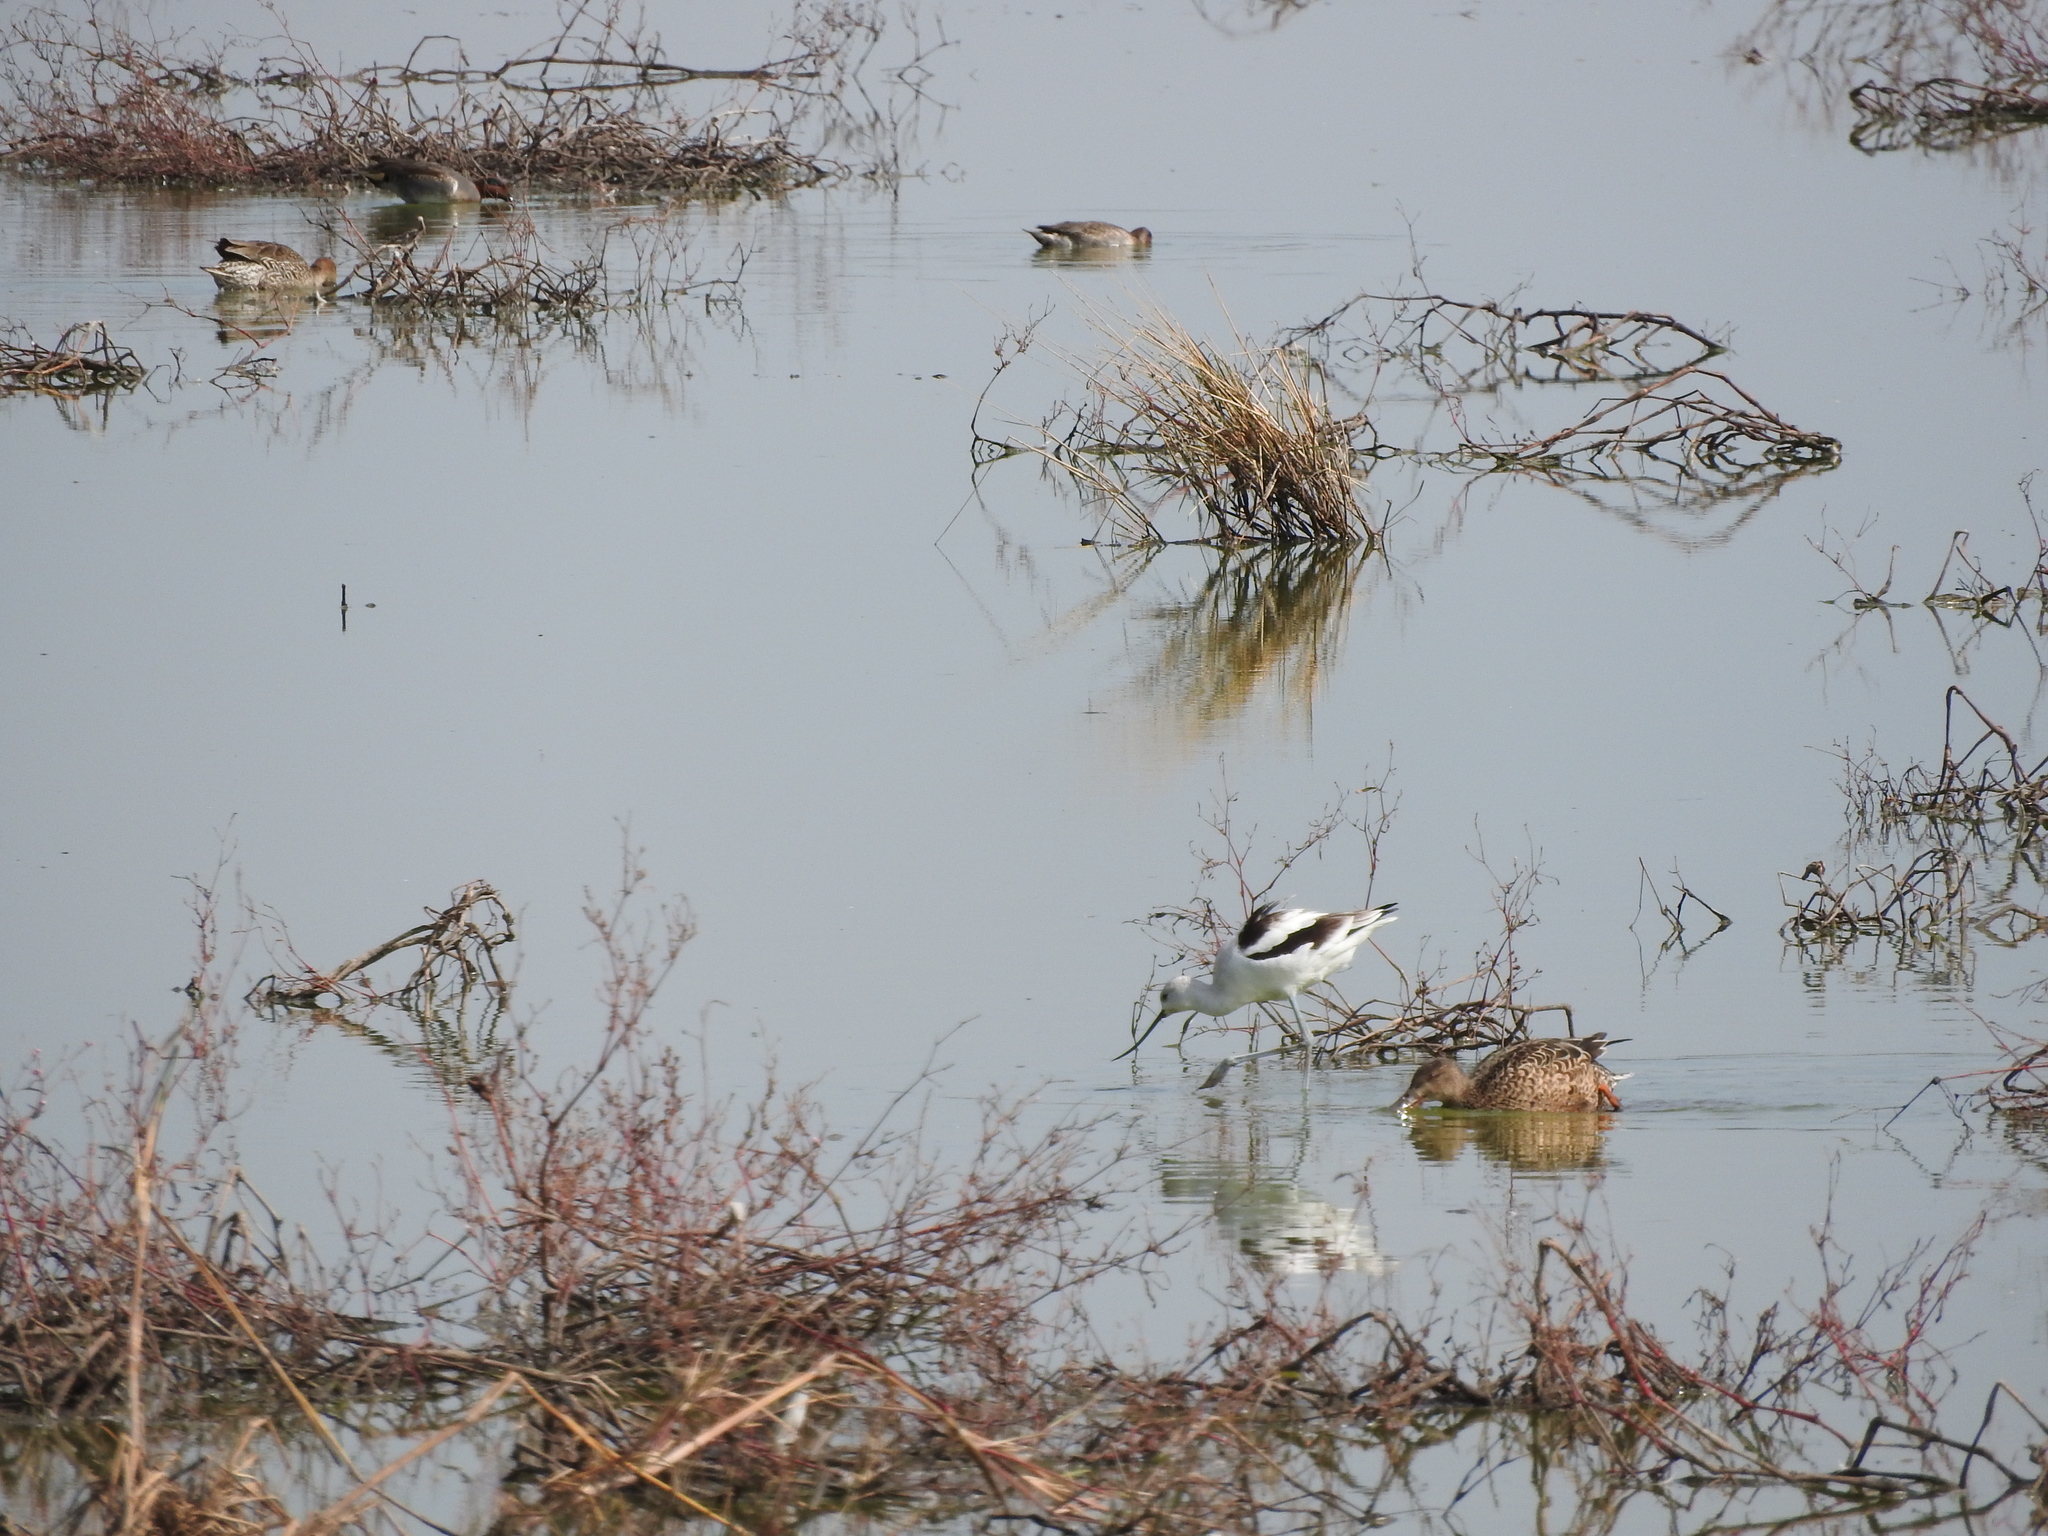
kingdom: Animalia
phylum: Chordata
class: Aves
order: Charadriiformes
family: Recurvirostridae
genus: Recurvirostra
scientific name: Recurvirostra americana
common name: American avocet
